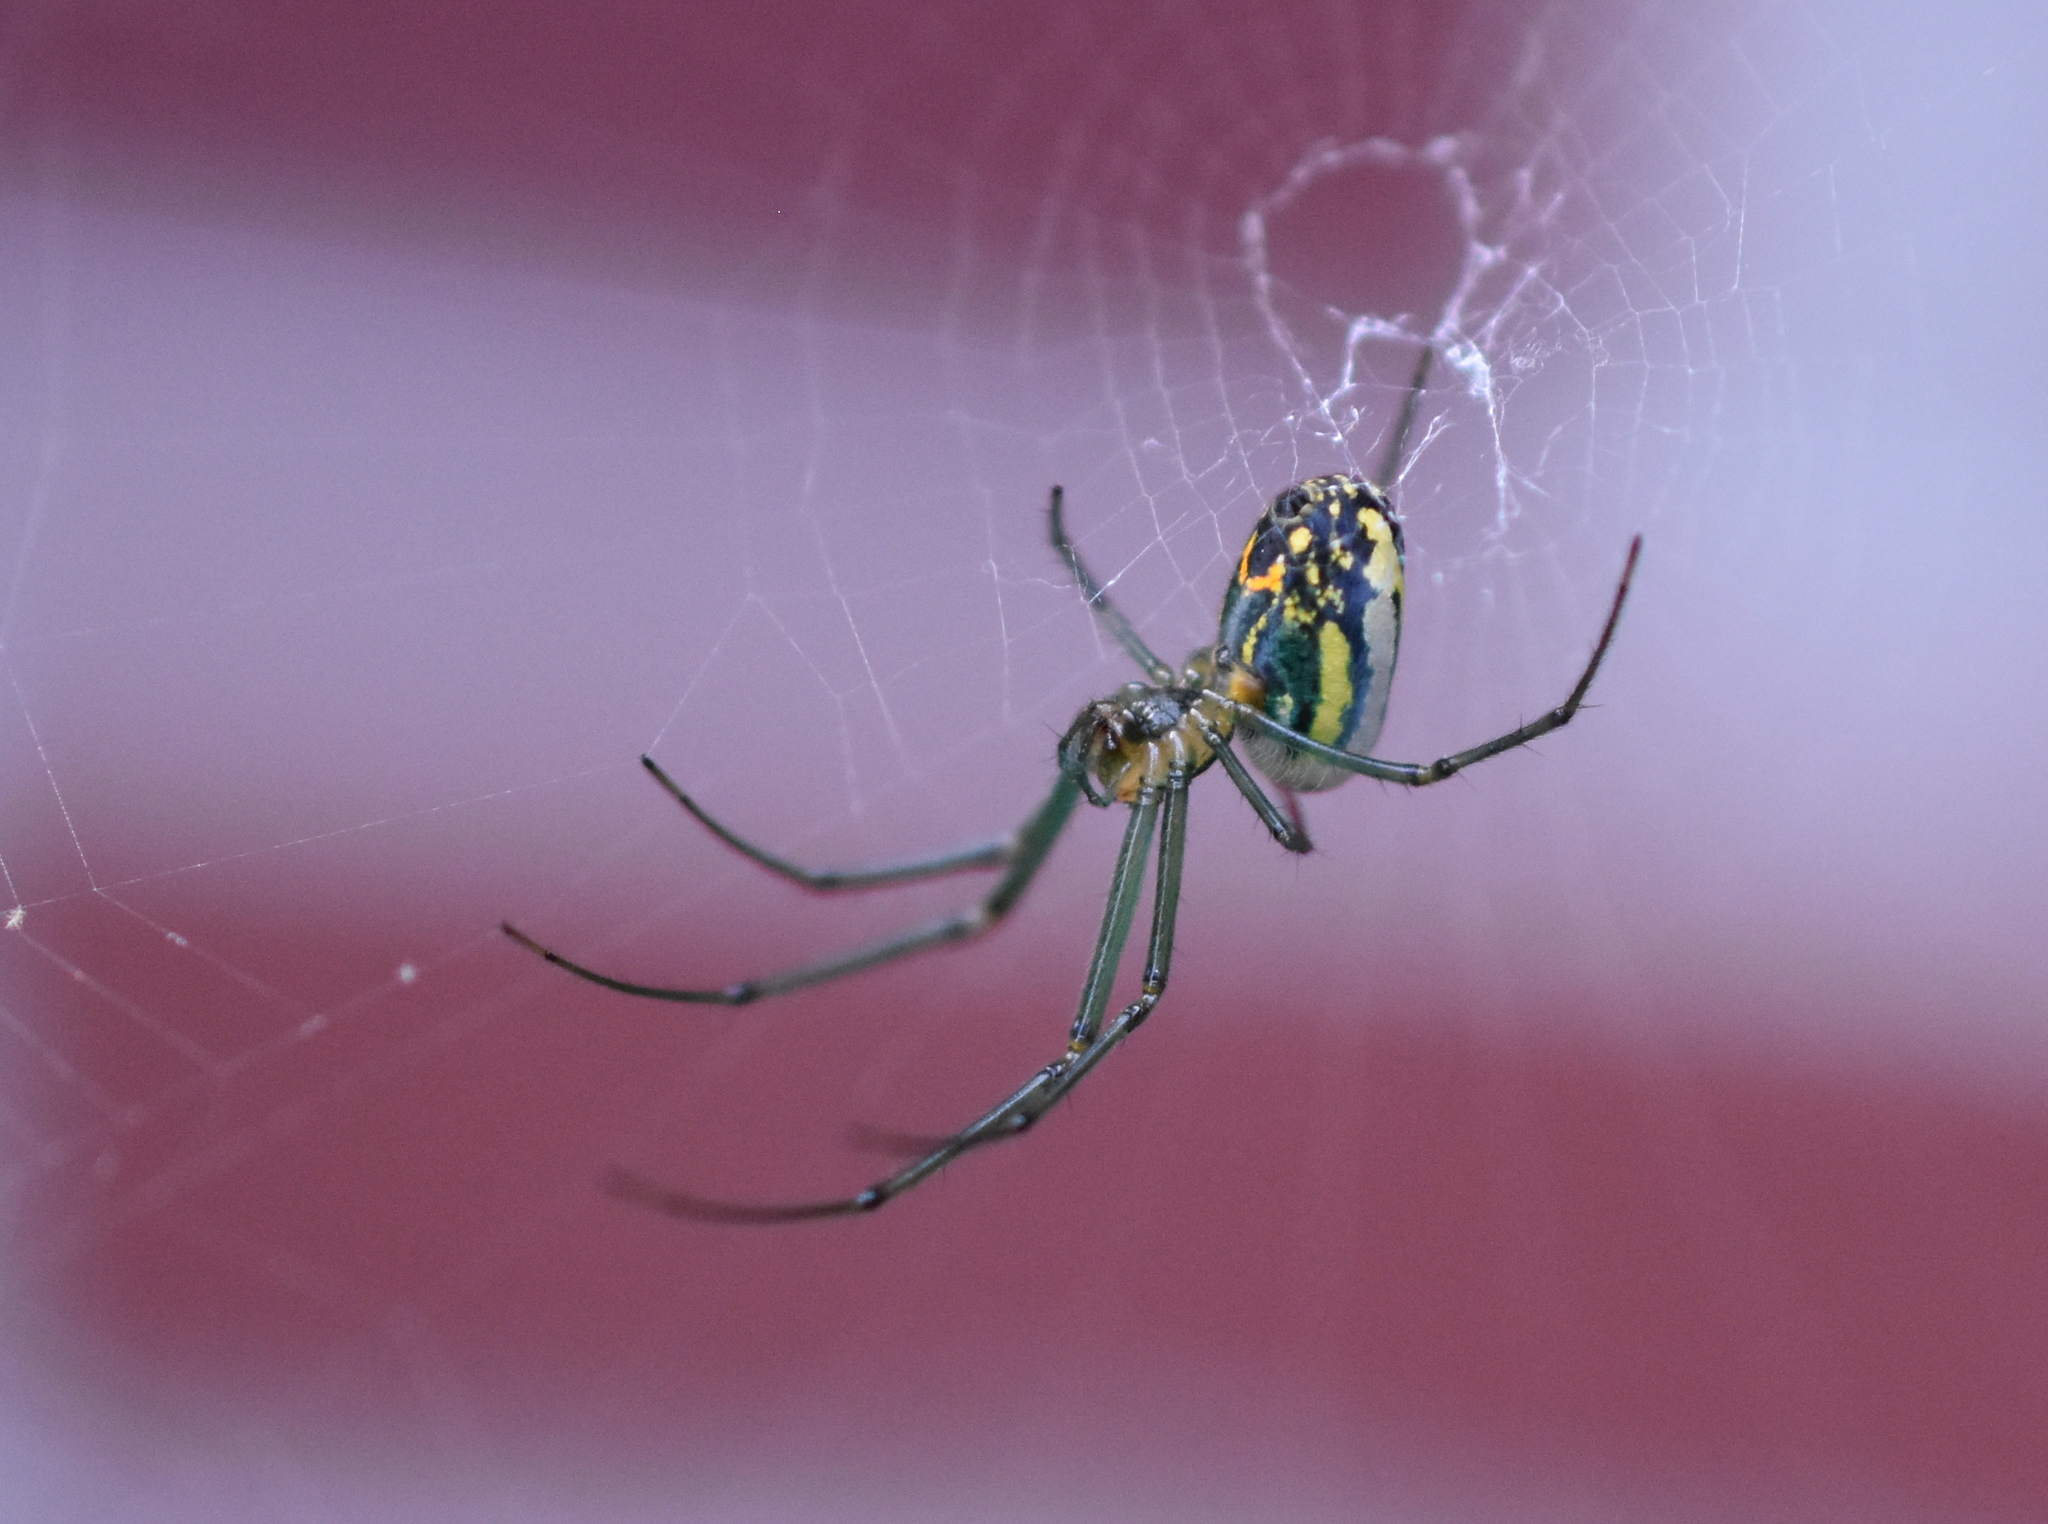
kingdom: Animalia
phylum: Arthropoda
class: Arachnida
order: Araneae
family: Tetragnathidae
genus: Leucauge
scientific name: Leucauge venusta
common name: Longjawed orb weavers
